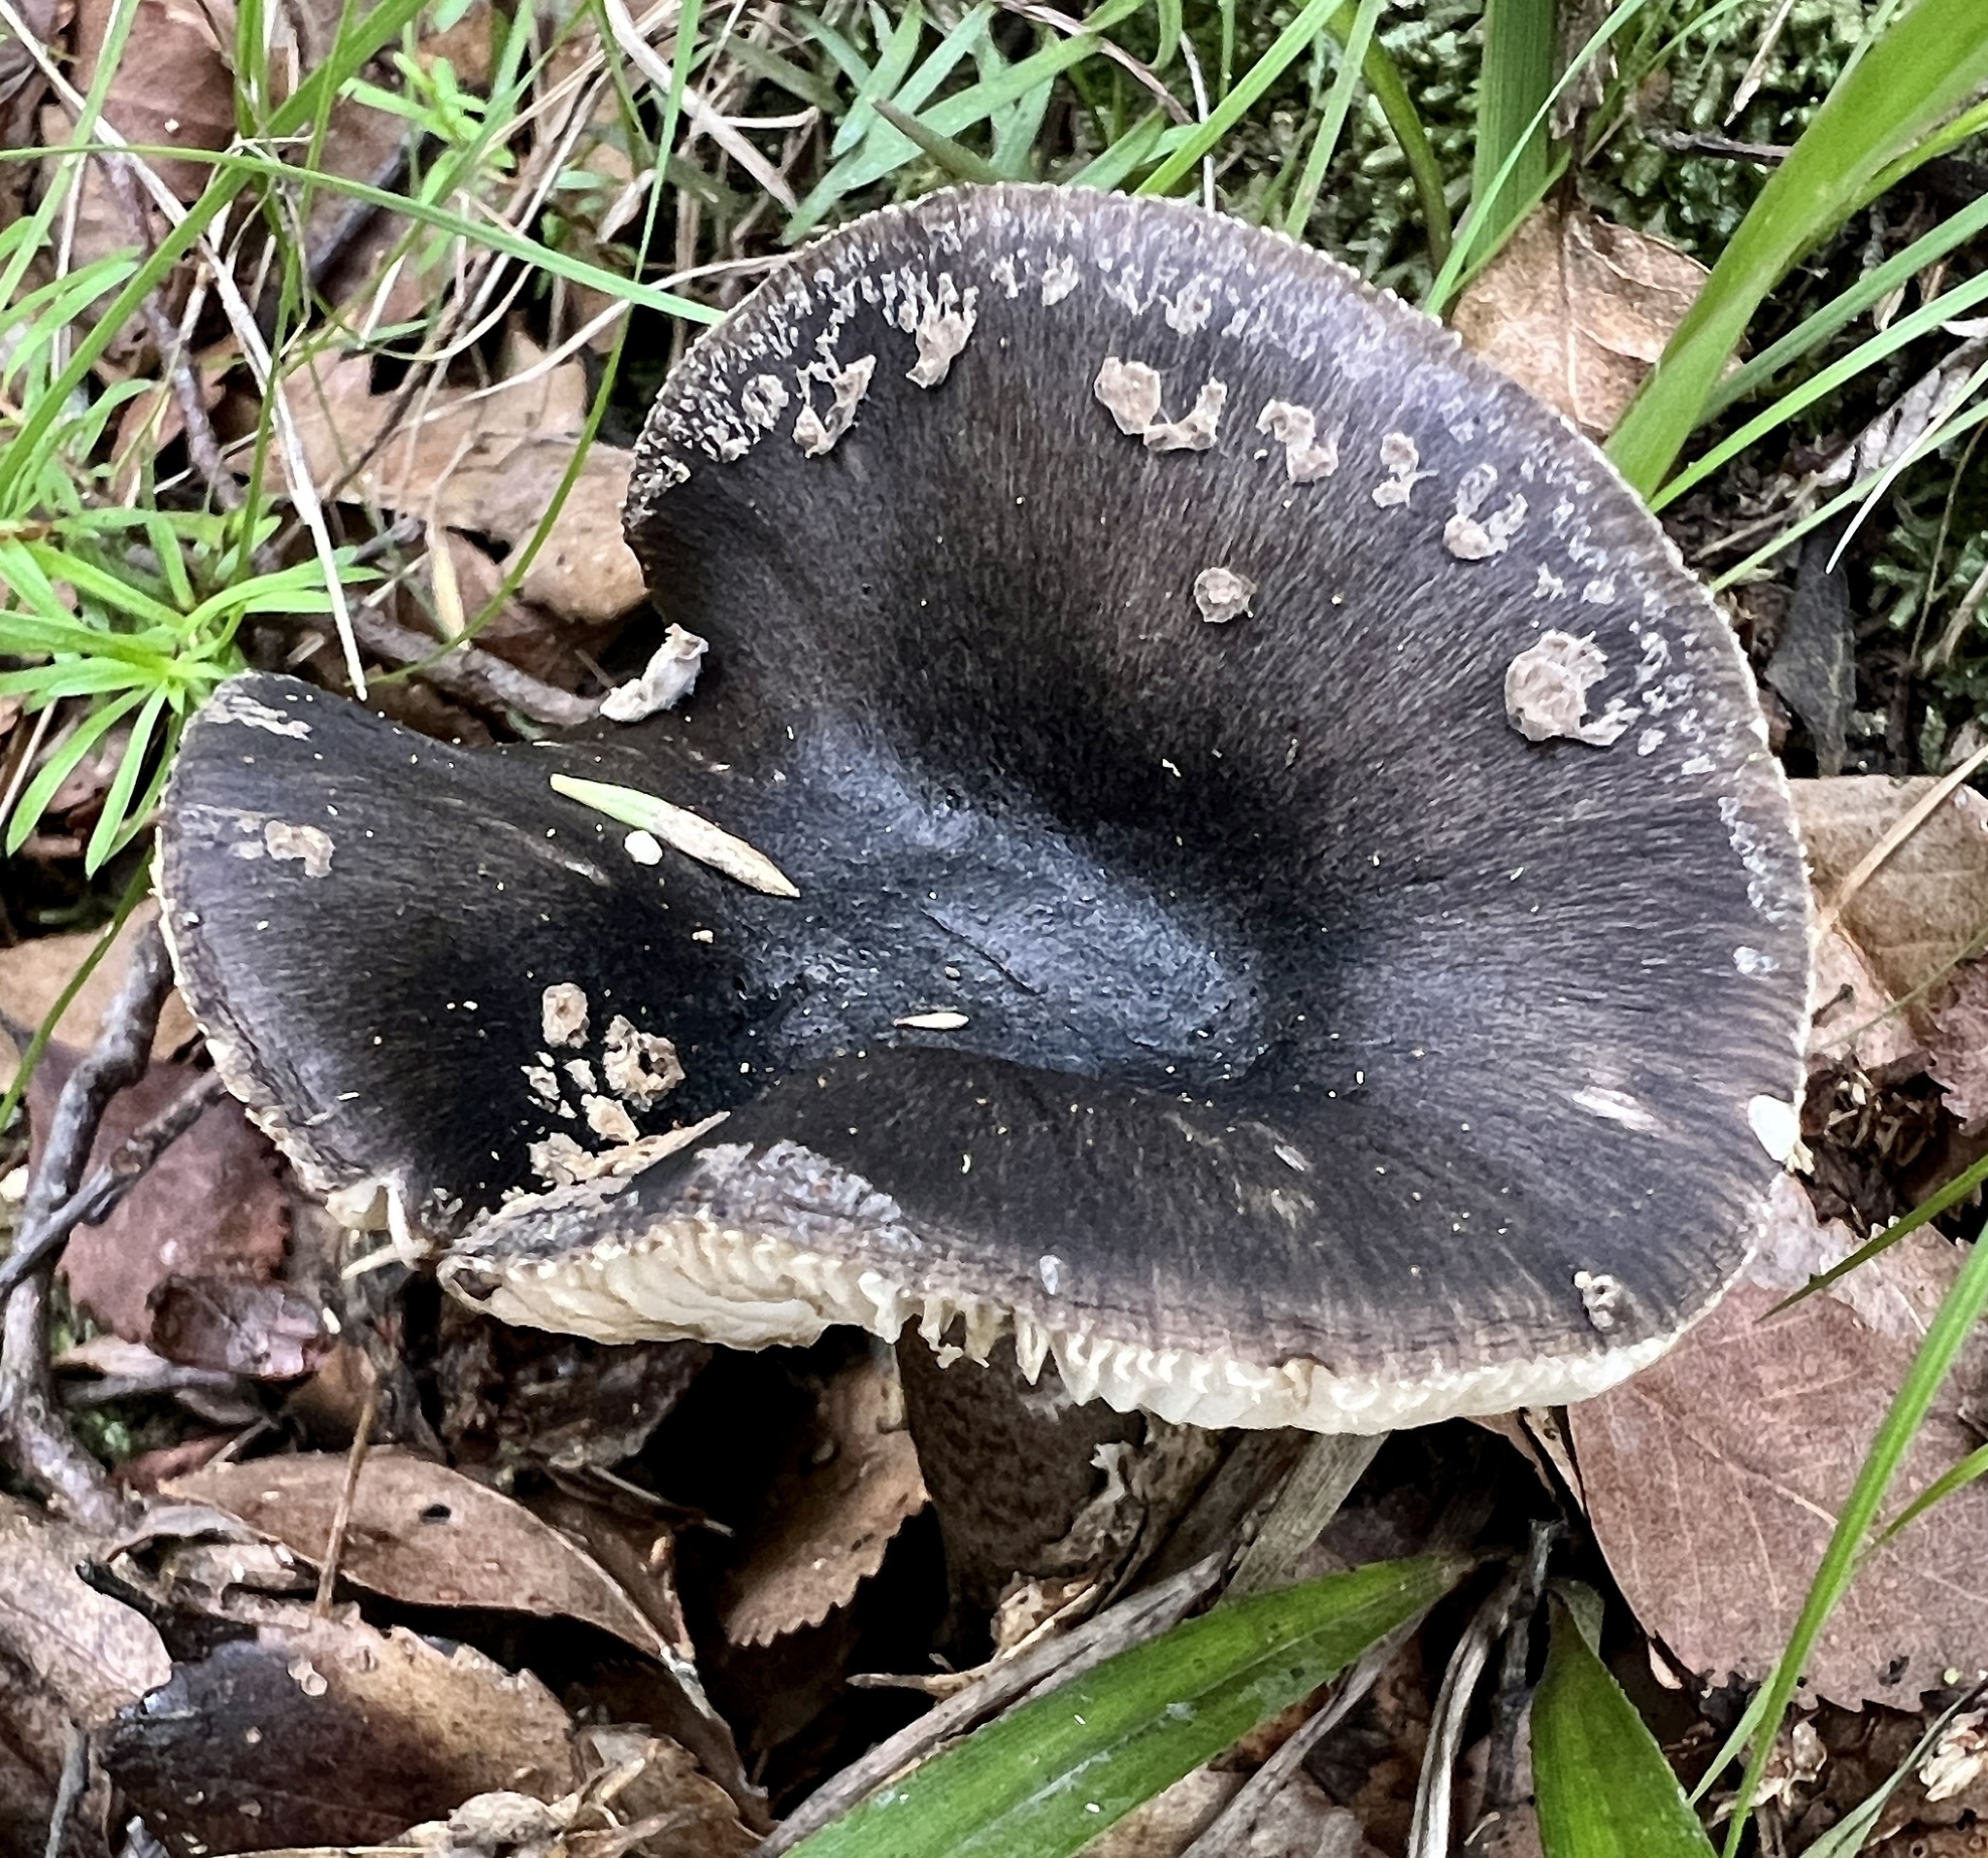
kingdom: Fungi
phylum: Basidiomycota
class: Agaricomycetes
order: Agaricales
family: Amanitaceae
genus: Amanita
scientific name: Amanita nothofagi
